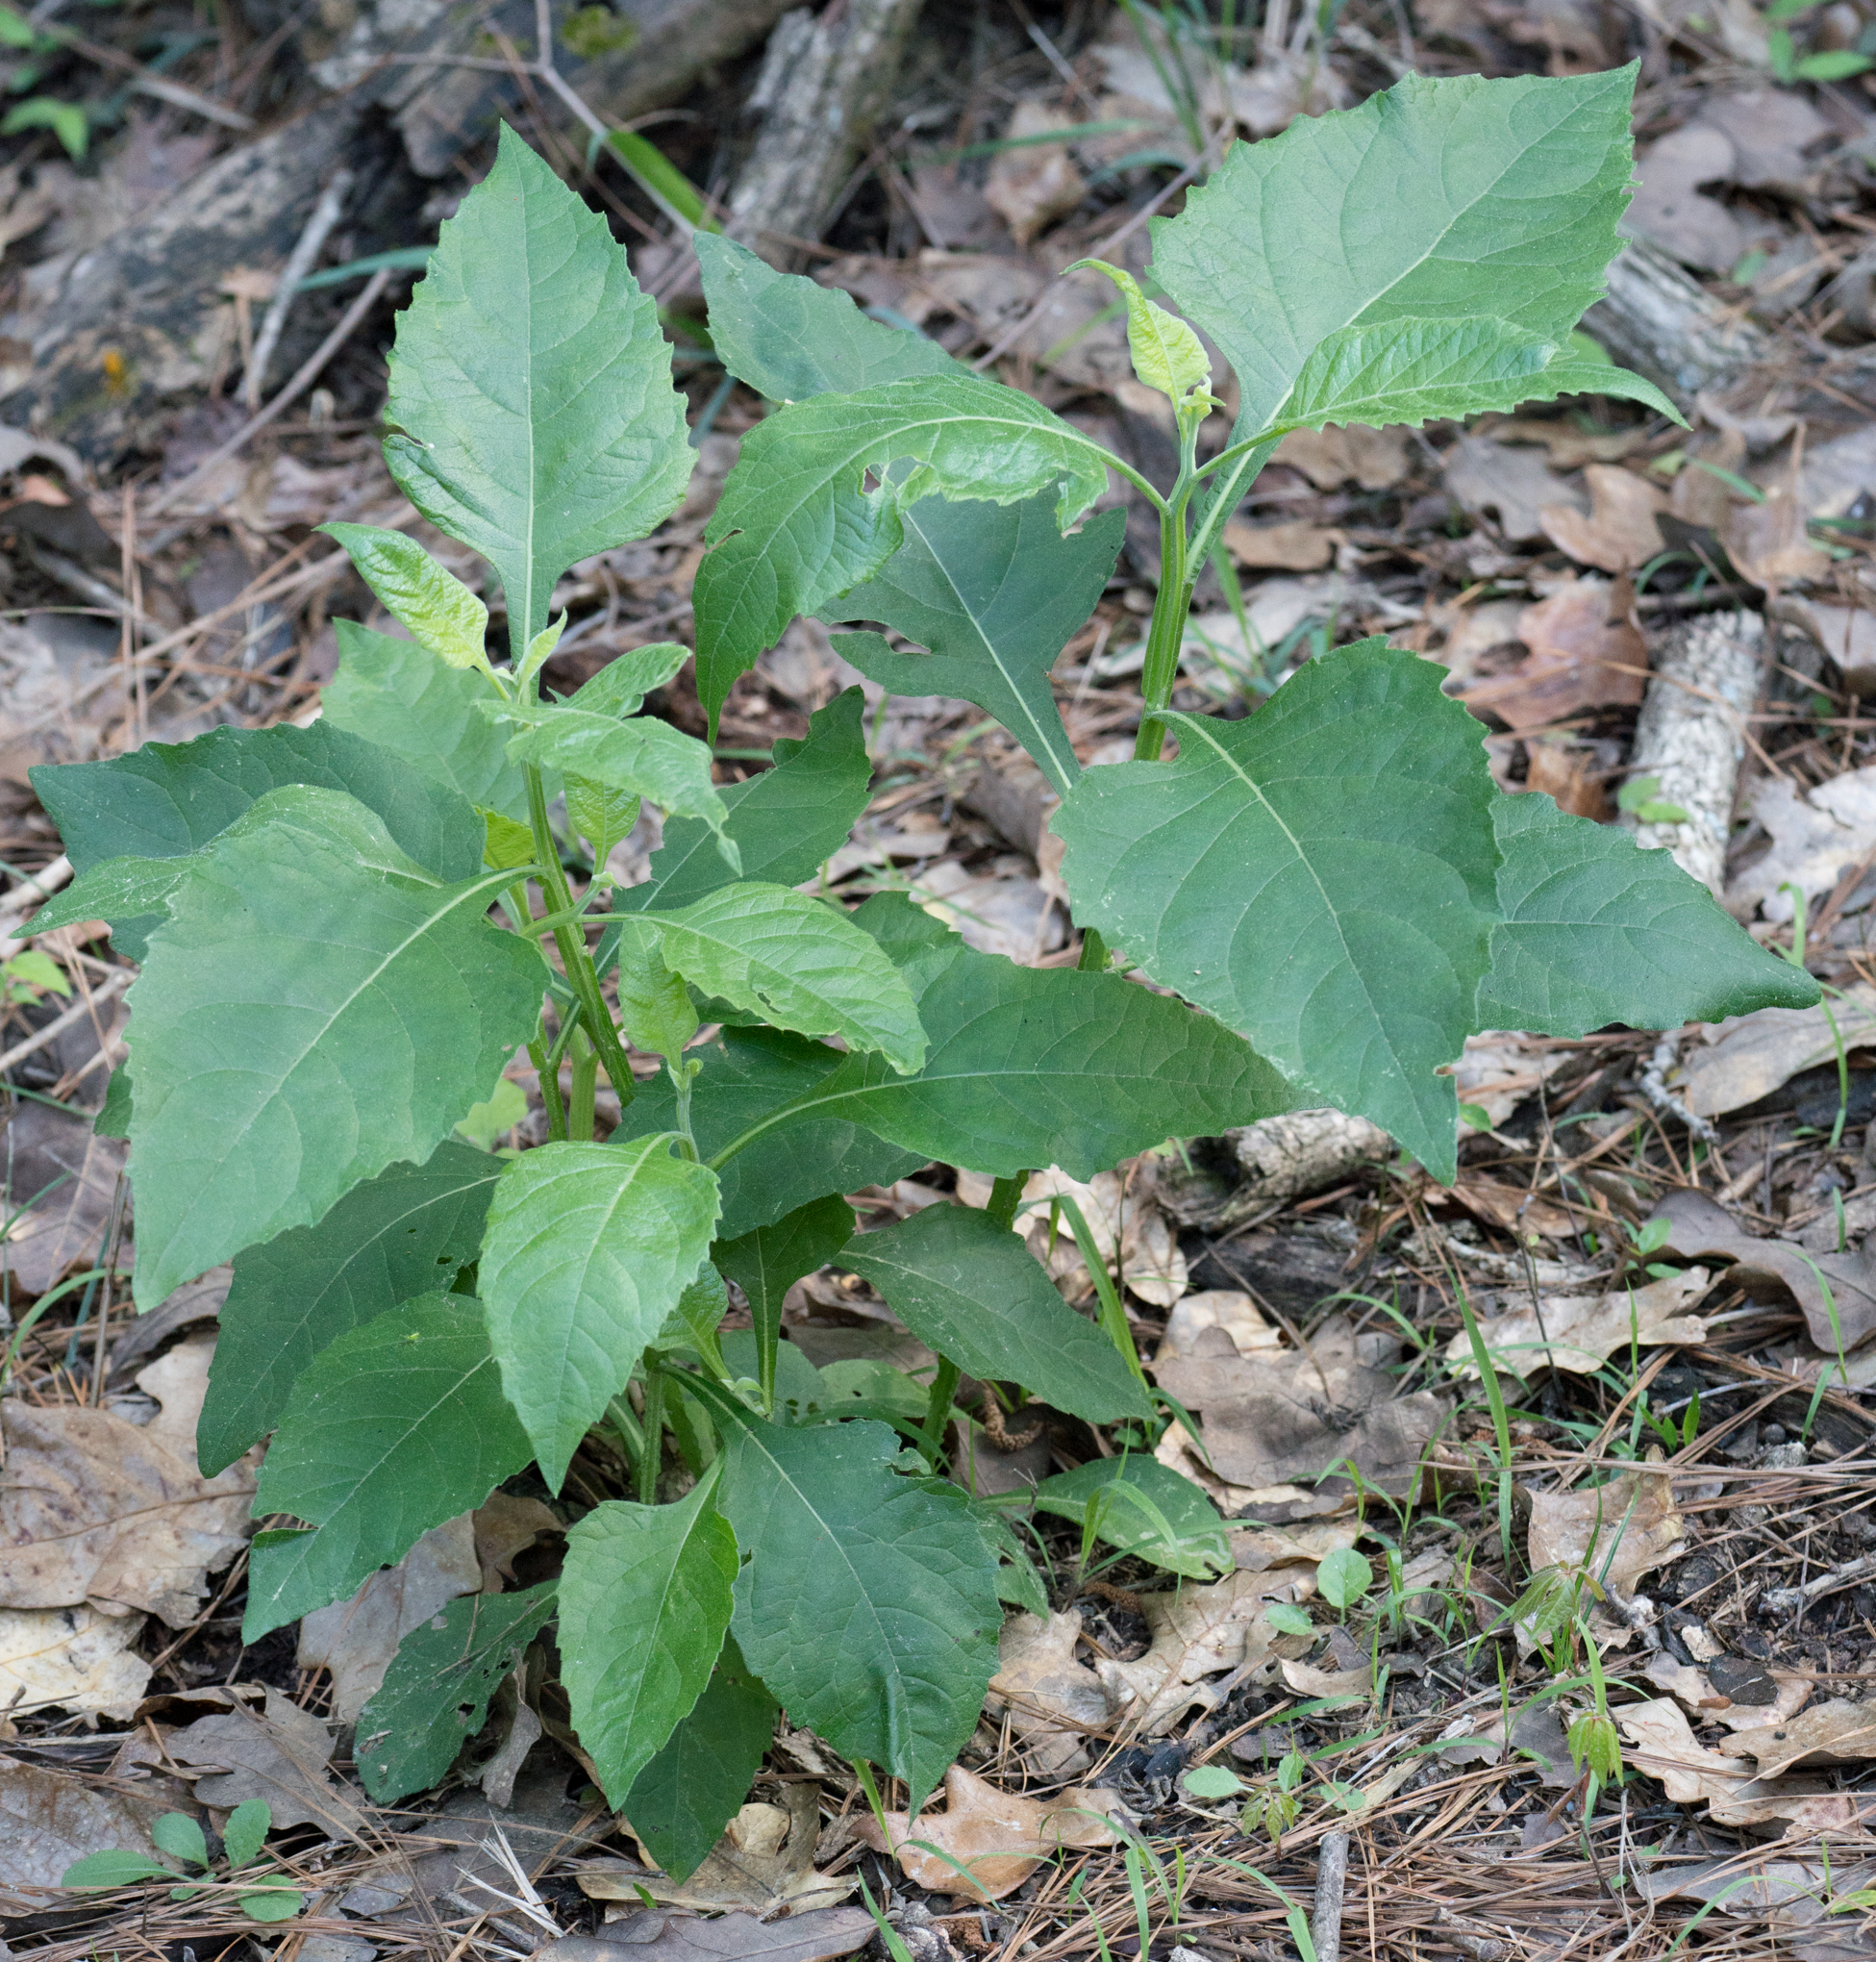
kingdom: Plantae
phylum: Tracheophyta
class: Magnoliopsida
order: Asterales
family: Asteraceae
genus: Verbesina
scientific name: Verbesina virginica
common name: Frostweed
